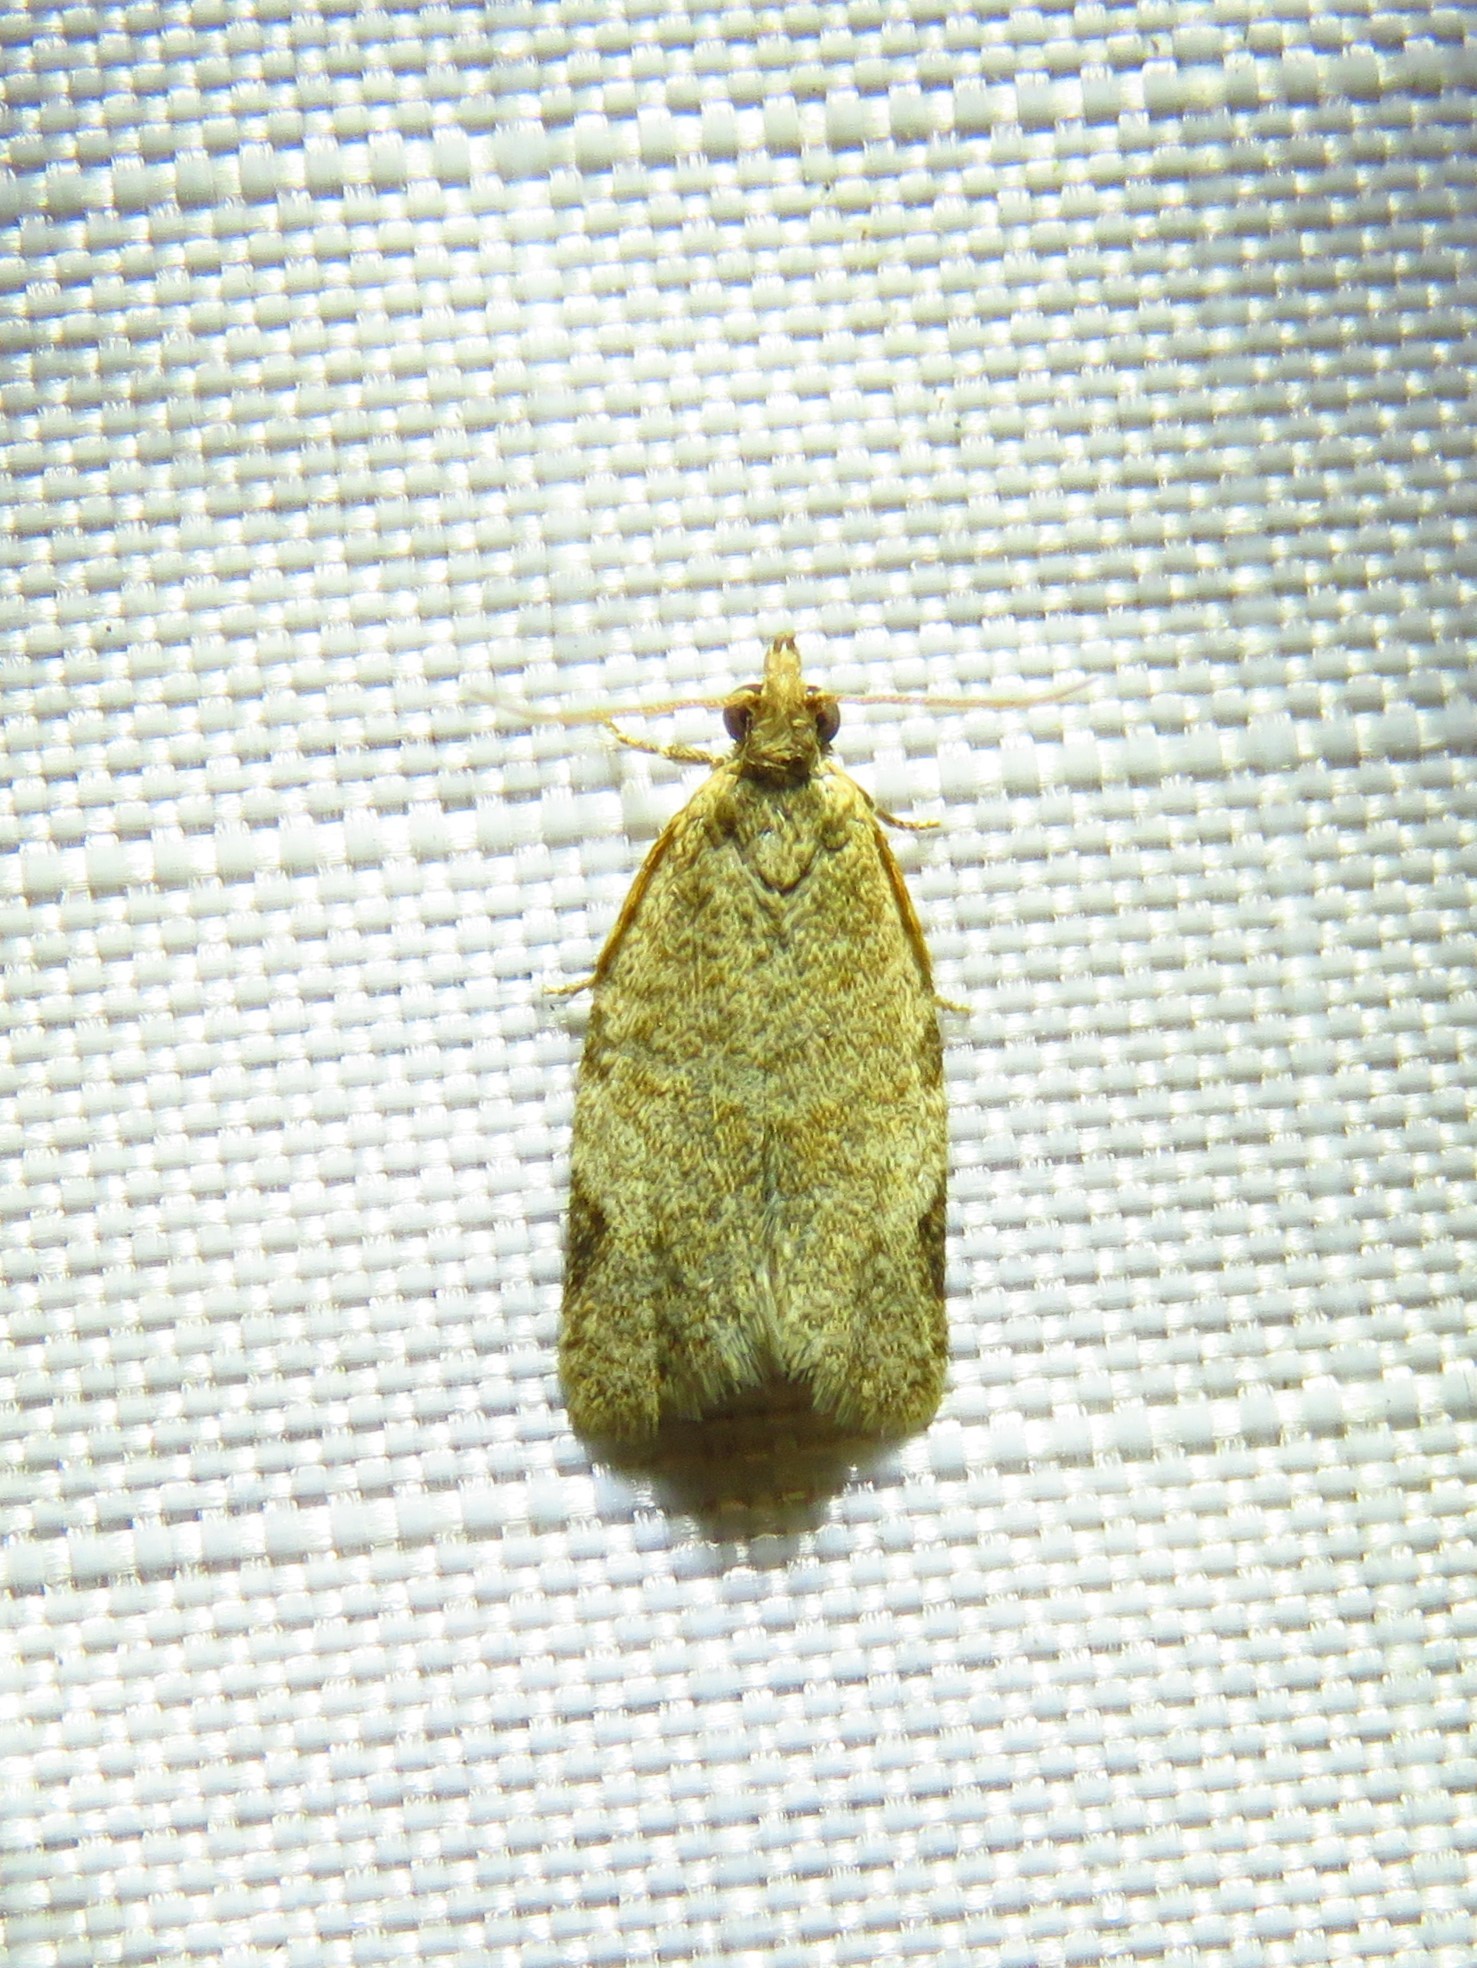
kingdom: Animalia
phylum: Arthropoda
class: Insecta
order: Lepidoptera
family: Tortricidae
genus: Clepsis
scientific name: Clepsis virescana
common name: Greenish apple moth
